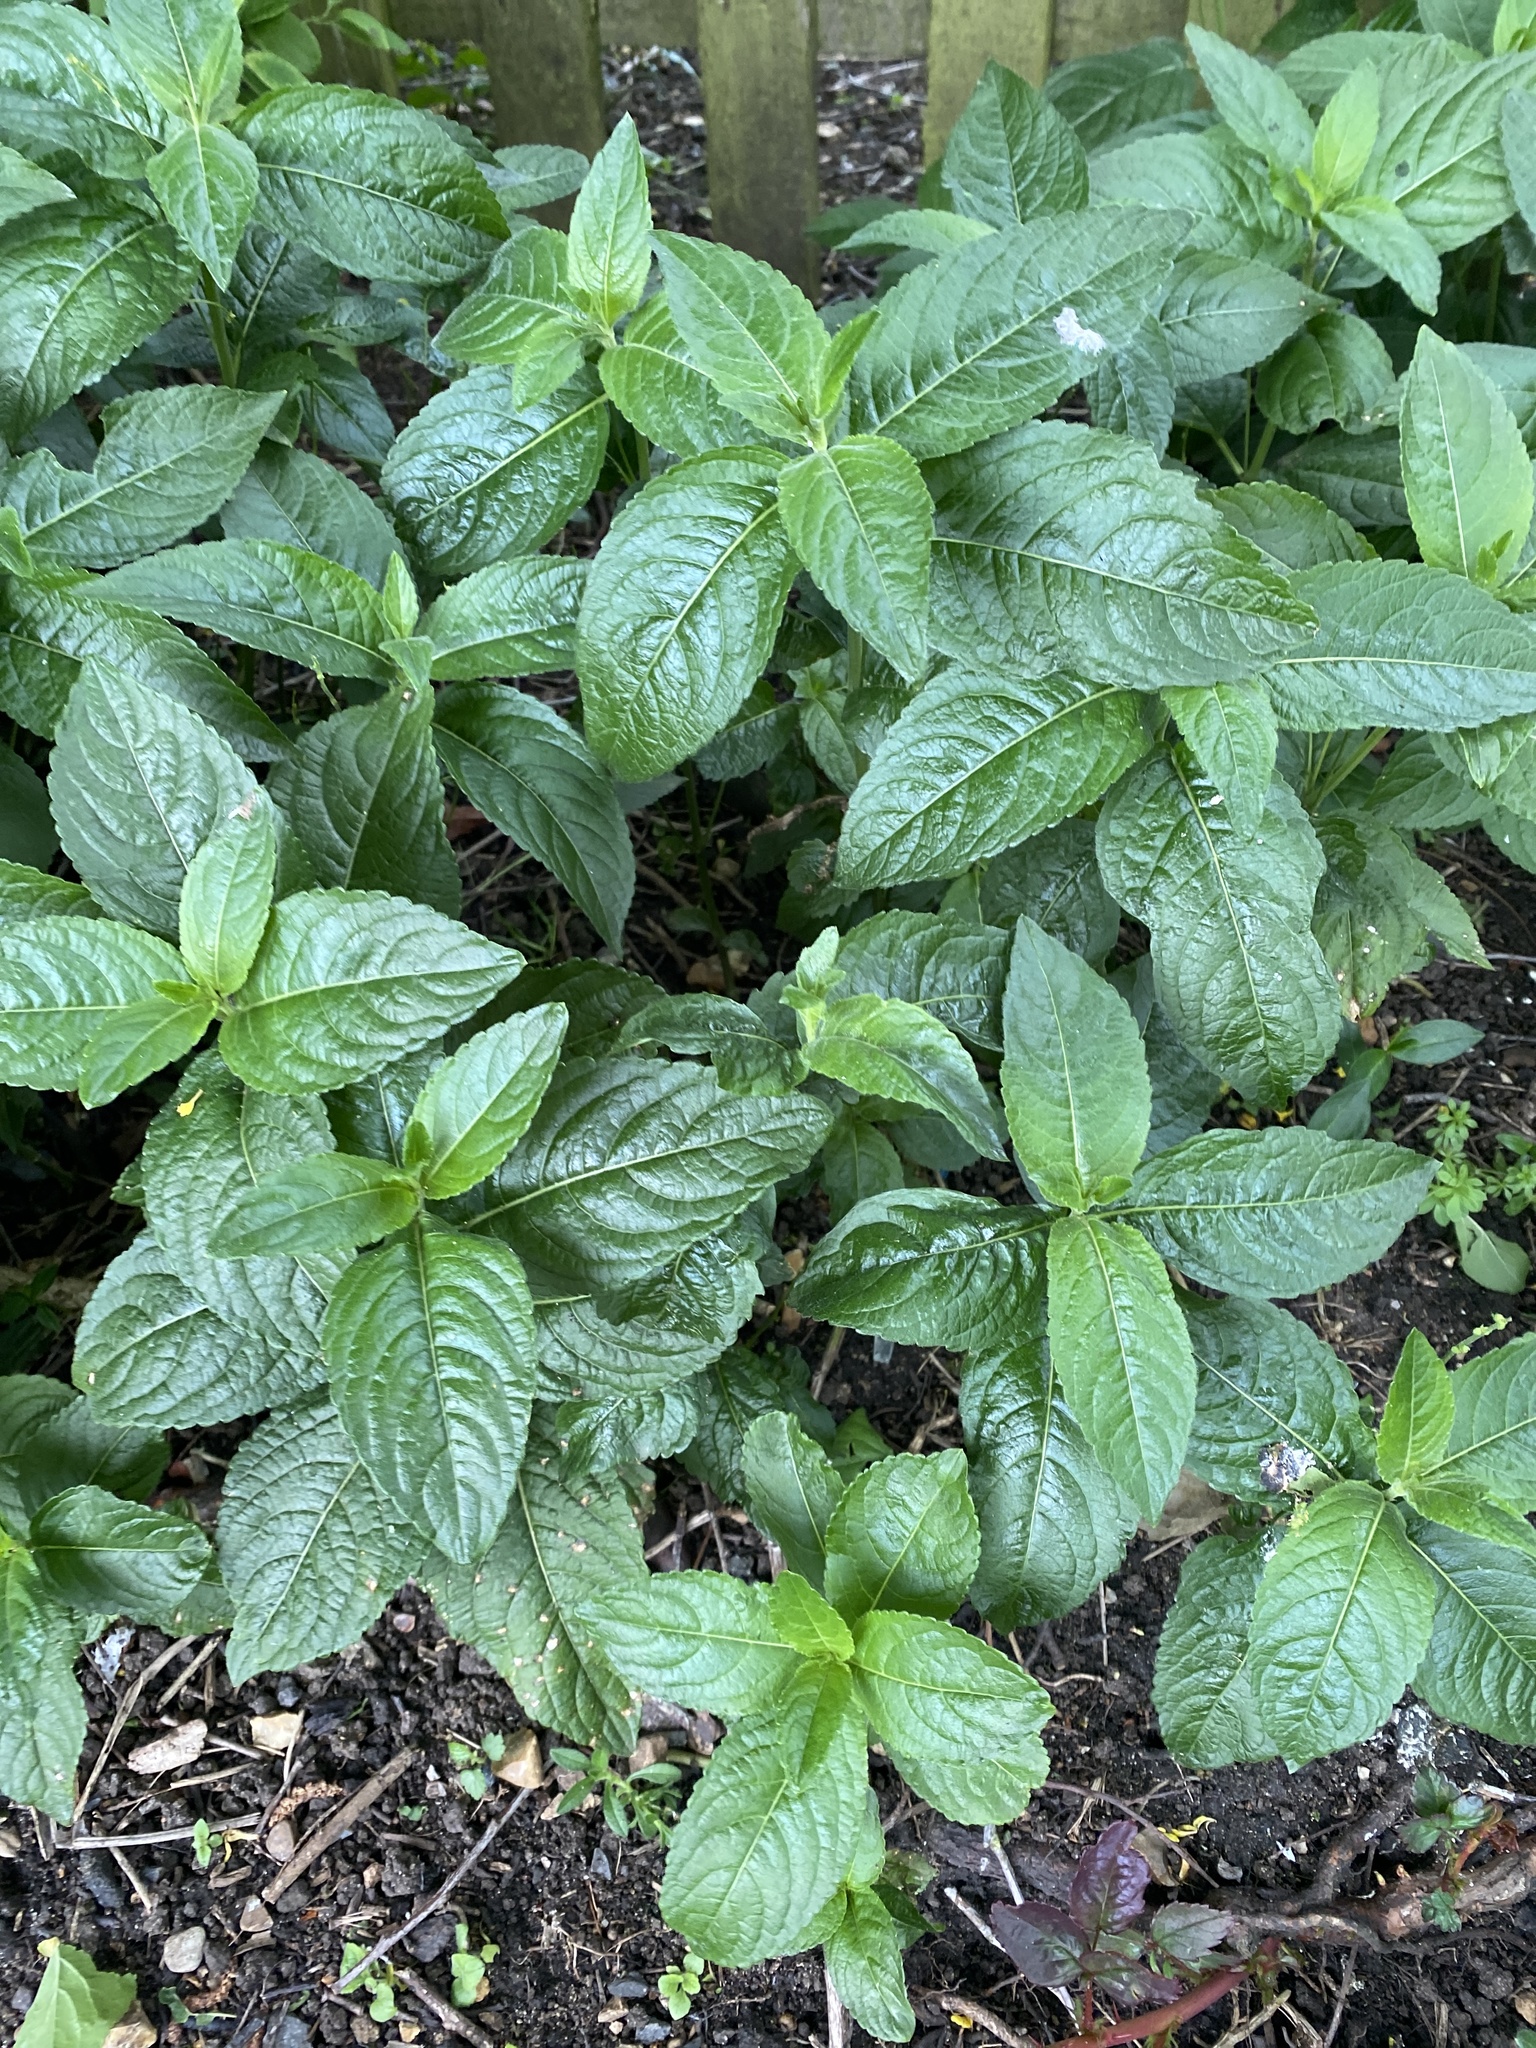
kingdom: Plantae
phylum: Tracheophyta
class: Magnoliopsida
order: Malpighiales
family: Euphorbiaceae
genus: Mercurialis
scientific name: Mercurialis perennis
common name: Dog mercury
